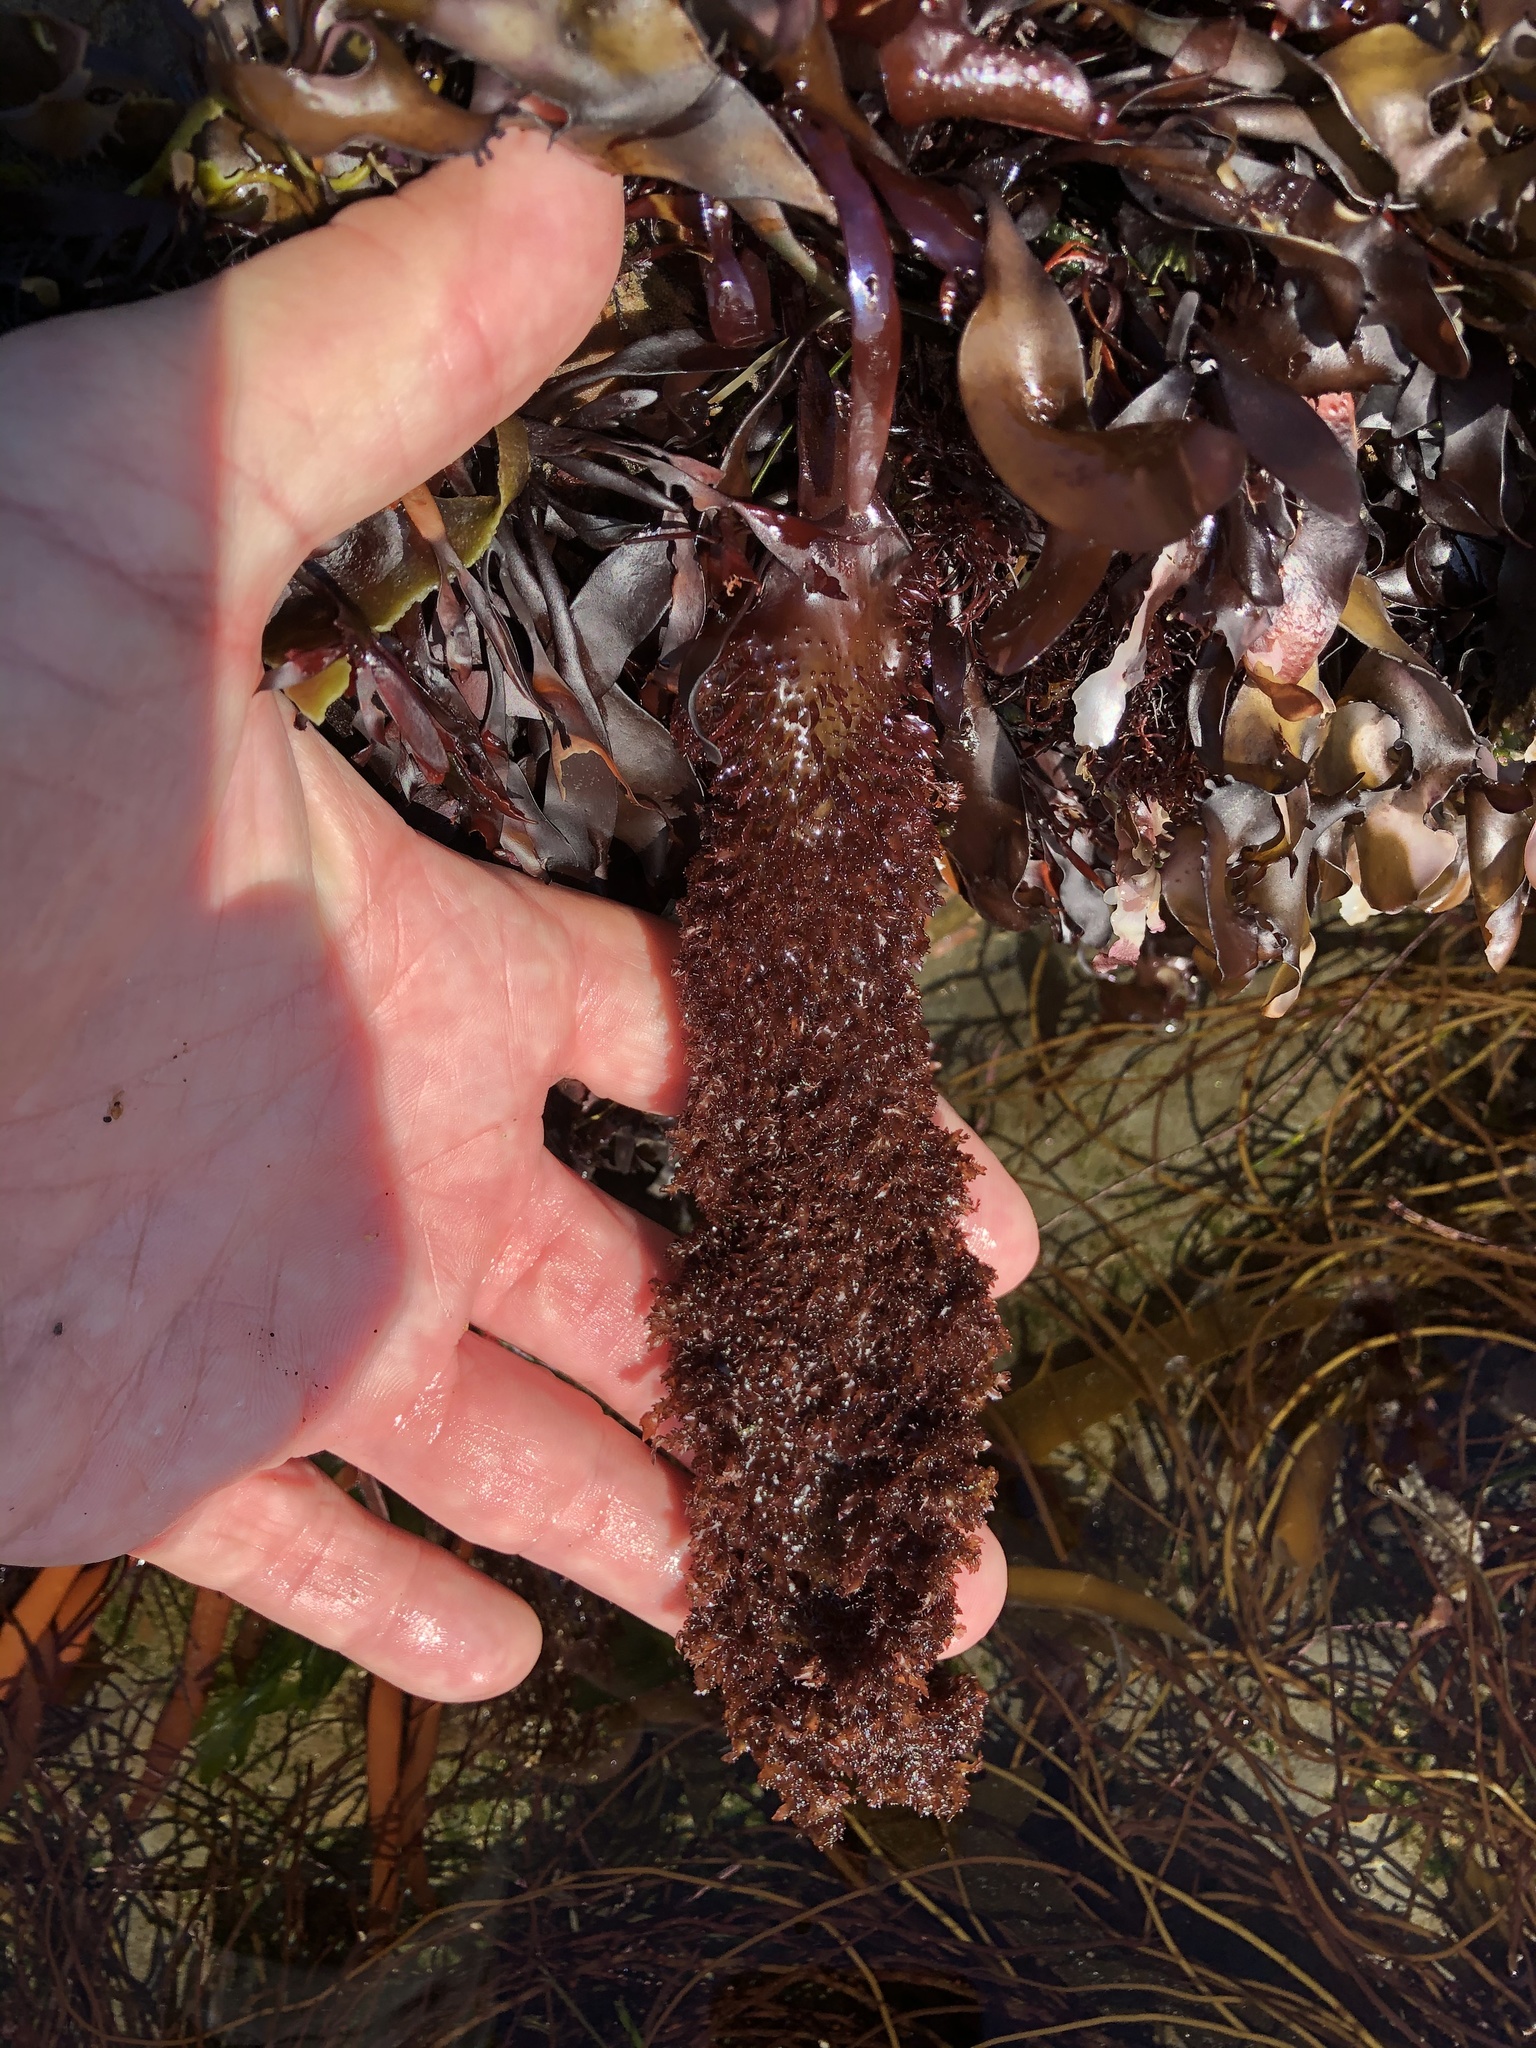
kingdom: Plantae
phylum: Rhodophyta
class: Florideophyceae
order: Gigartinales
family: Gigartinaceae
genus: Chondracanthus
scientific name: Chondracanthus exasperatus
